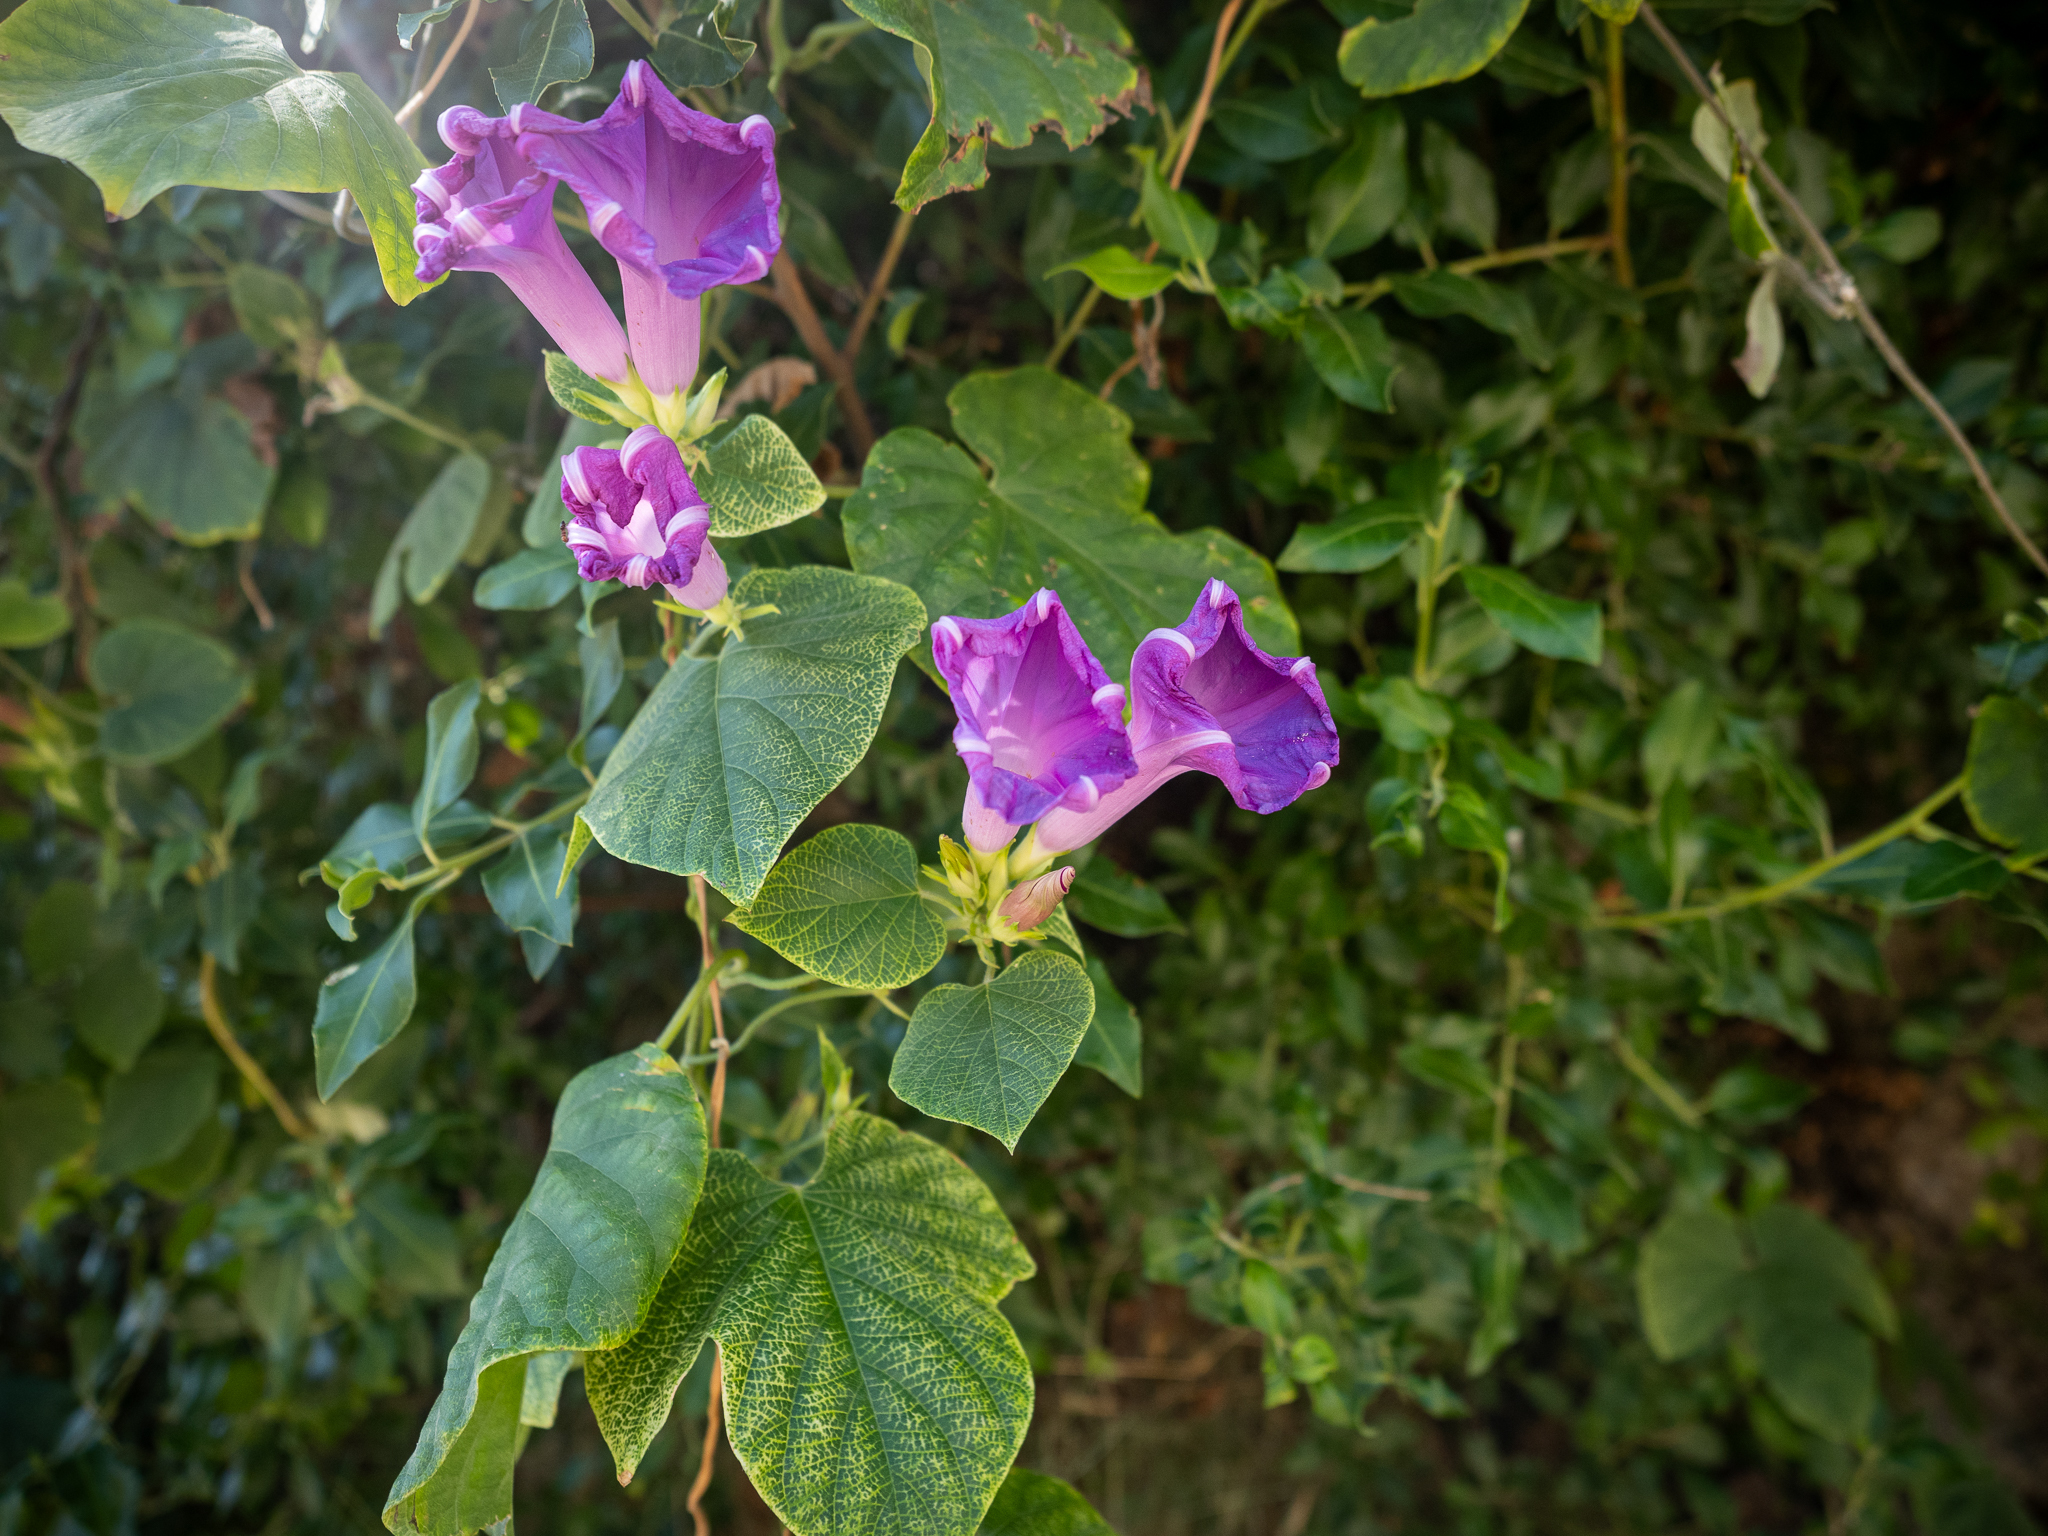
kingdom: Plantae
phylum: Tracheophyta
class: Magnoliopsida
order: Solanales
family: Convolvulaceae
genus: Ipomoea
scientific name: Ipomoea indica
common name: Blue dawnflower
